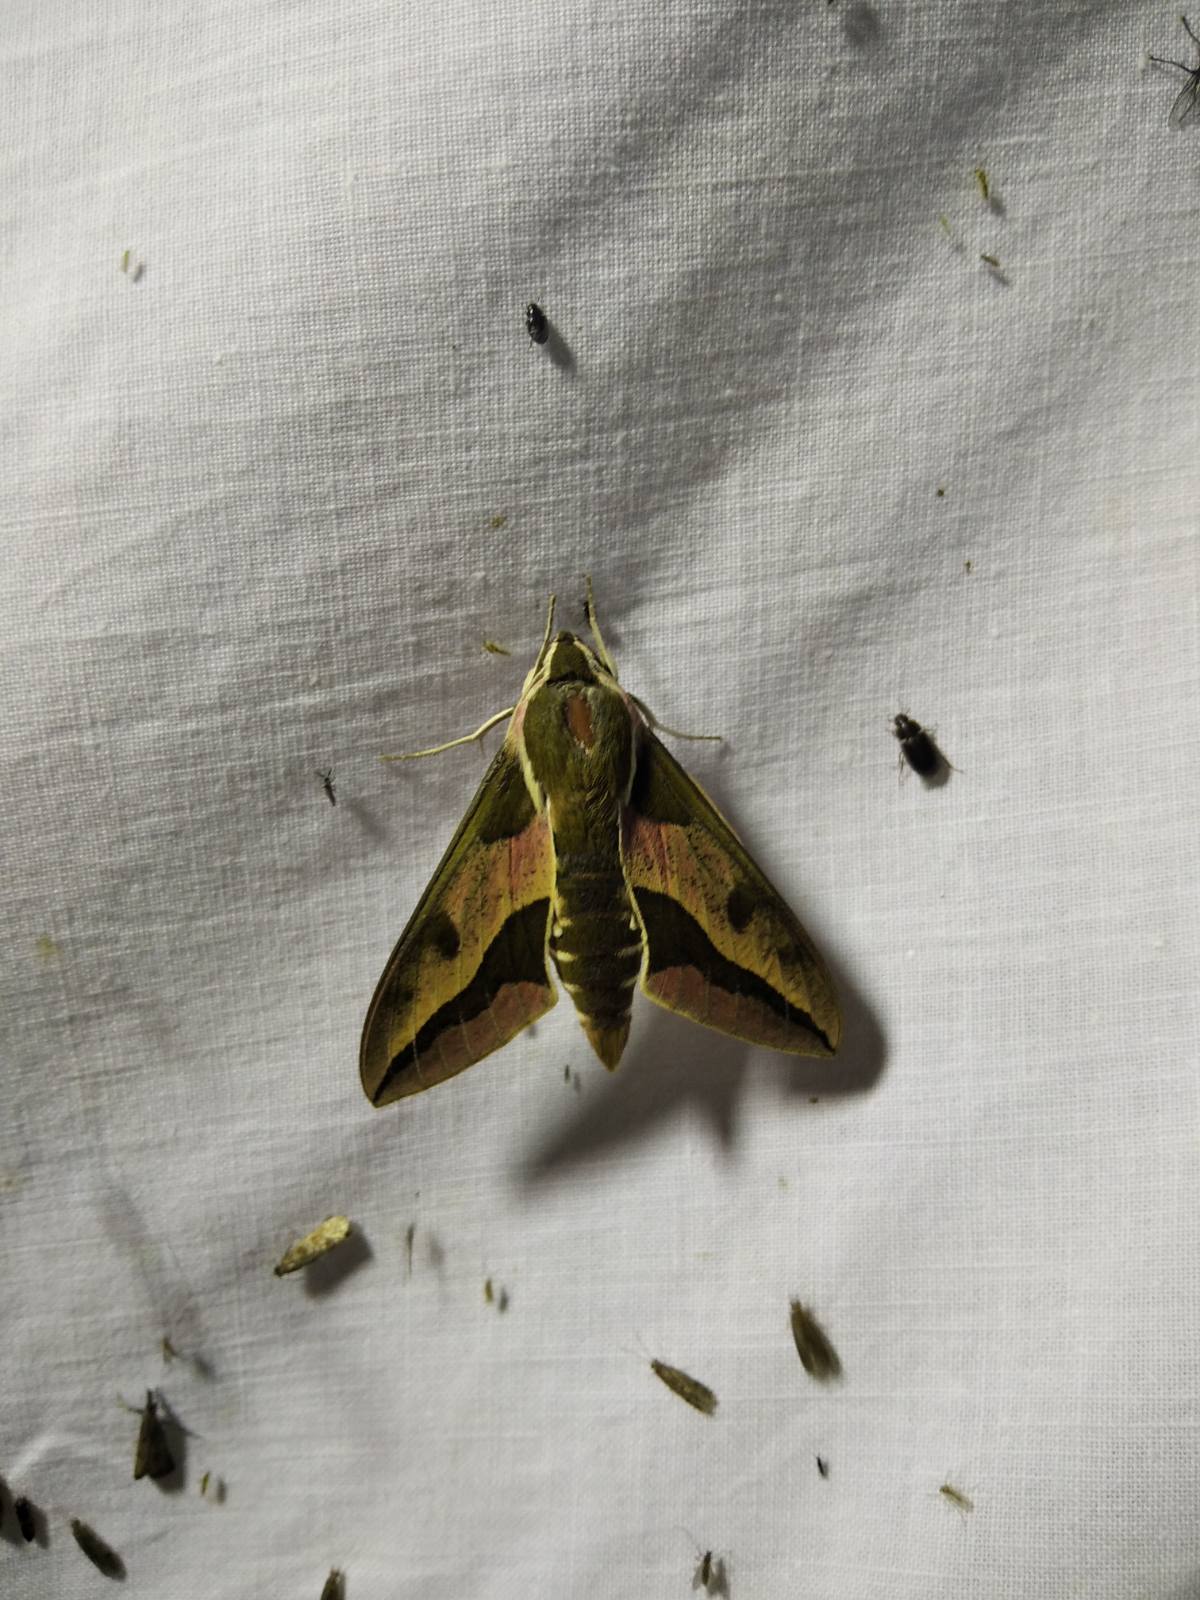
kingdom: Animalia
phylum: Arthropoda
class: Insecta
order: Lepidoptera
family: Sphingidae
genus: Hyles
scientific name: Hyles euphorbiae
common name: Spurge hawk-moth
